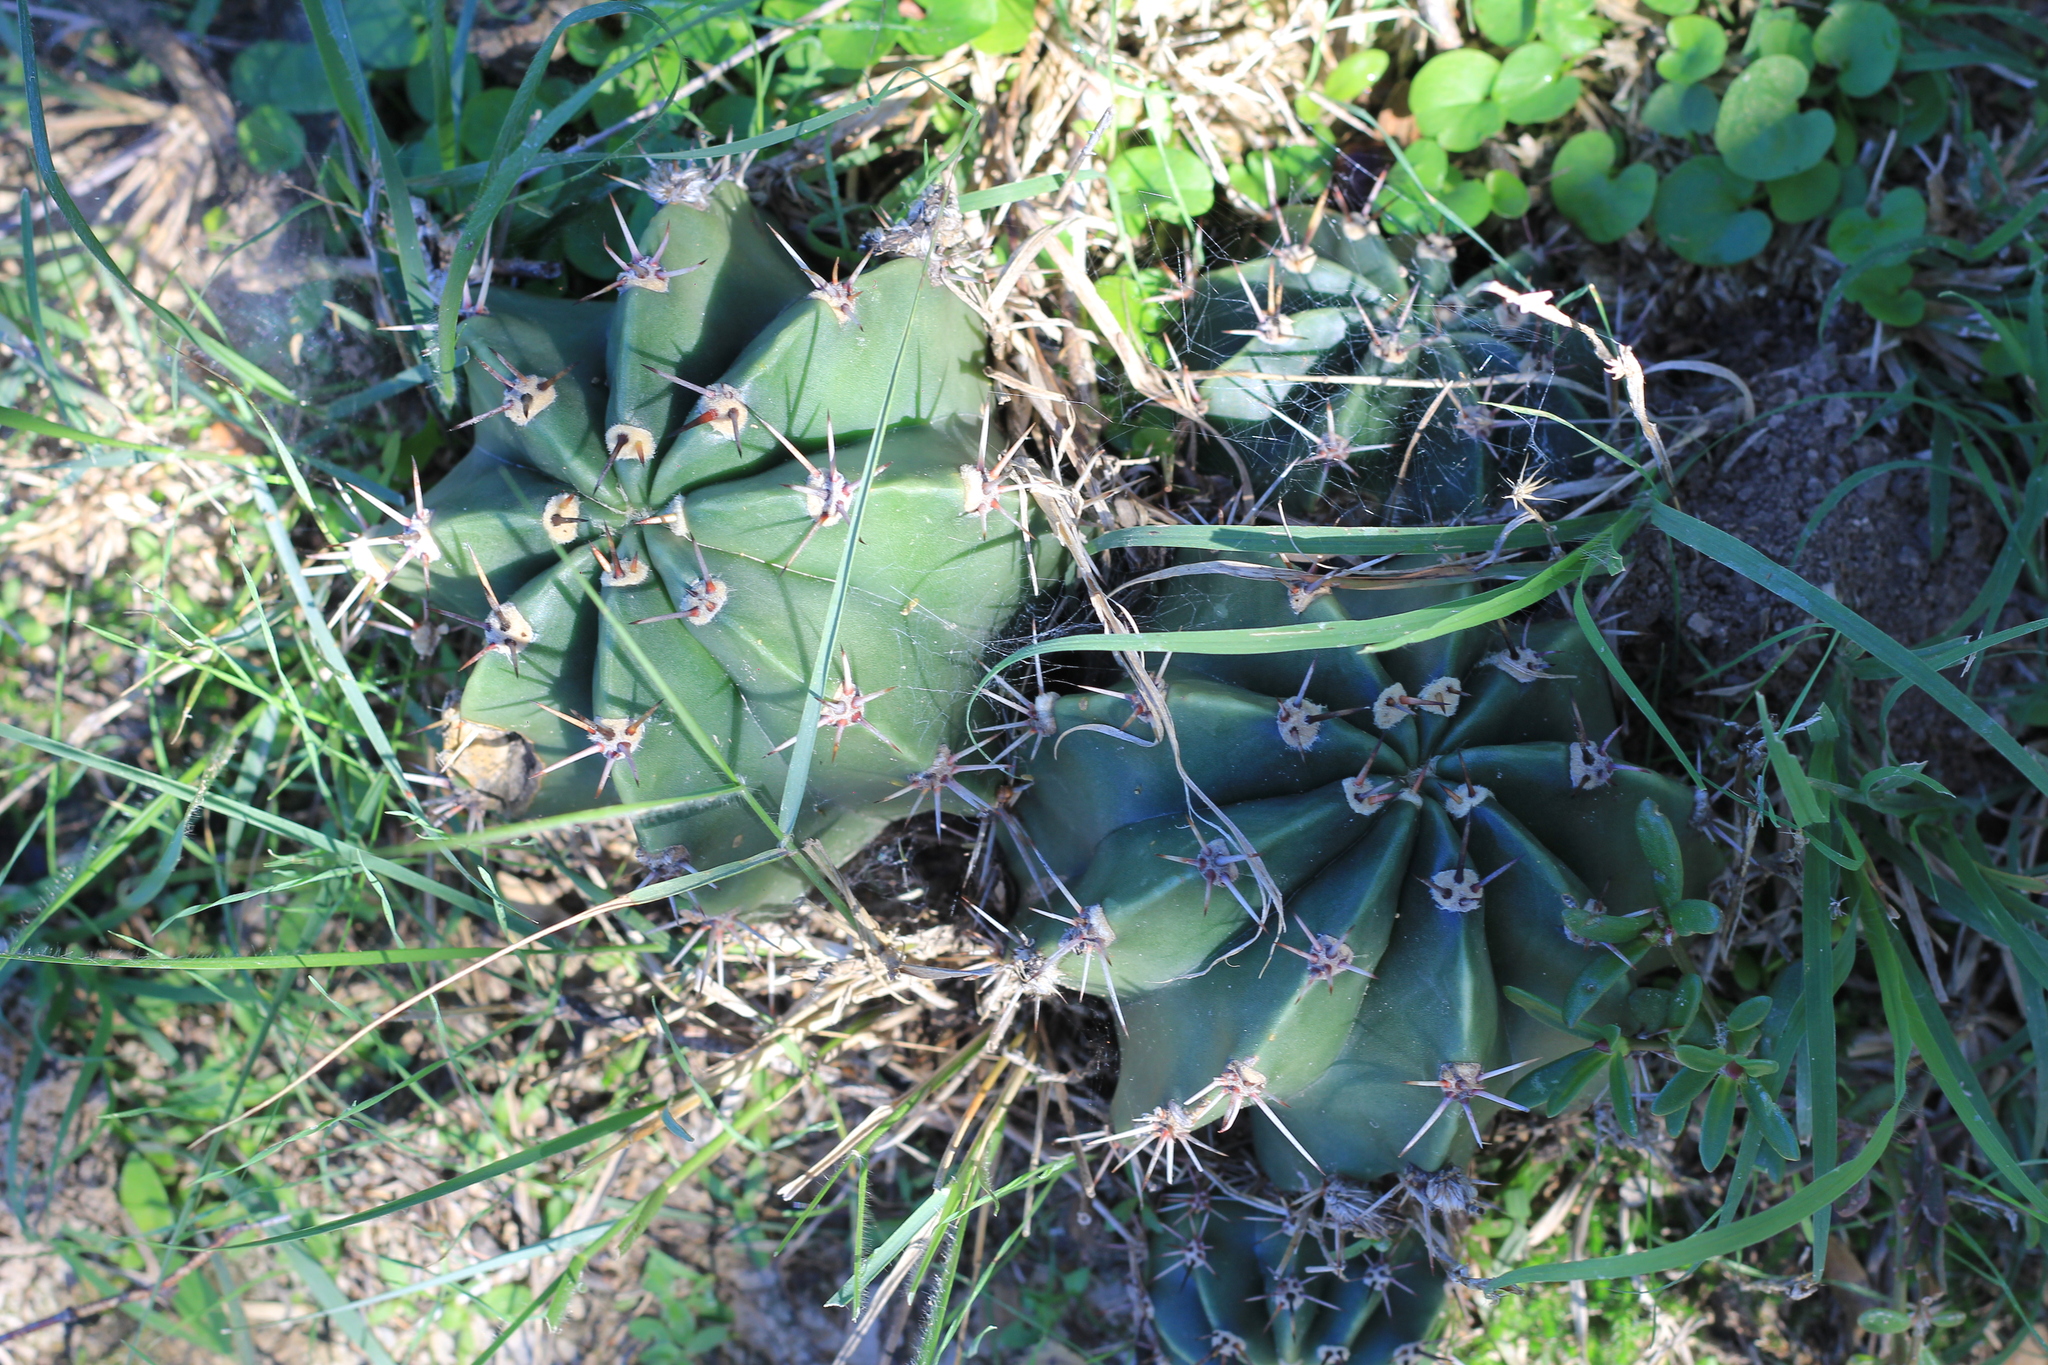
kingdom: Plantae
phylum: Tracheophyta
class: Magnoliopsida
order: Caryophyllales
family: Cactaceae
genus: Acanthocalycium
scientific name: Acanthocalycium rhodotrichum
